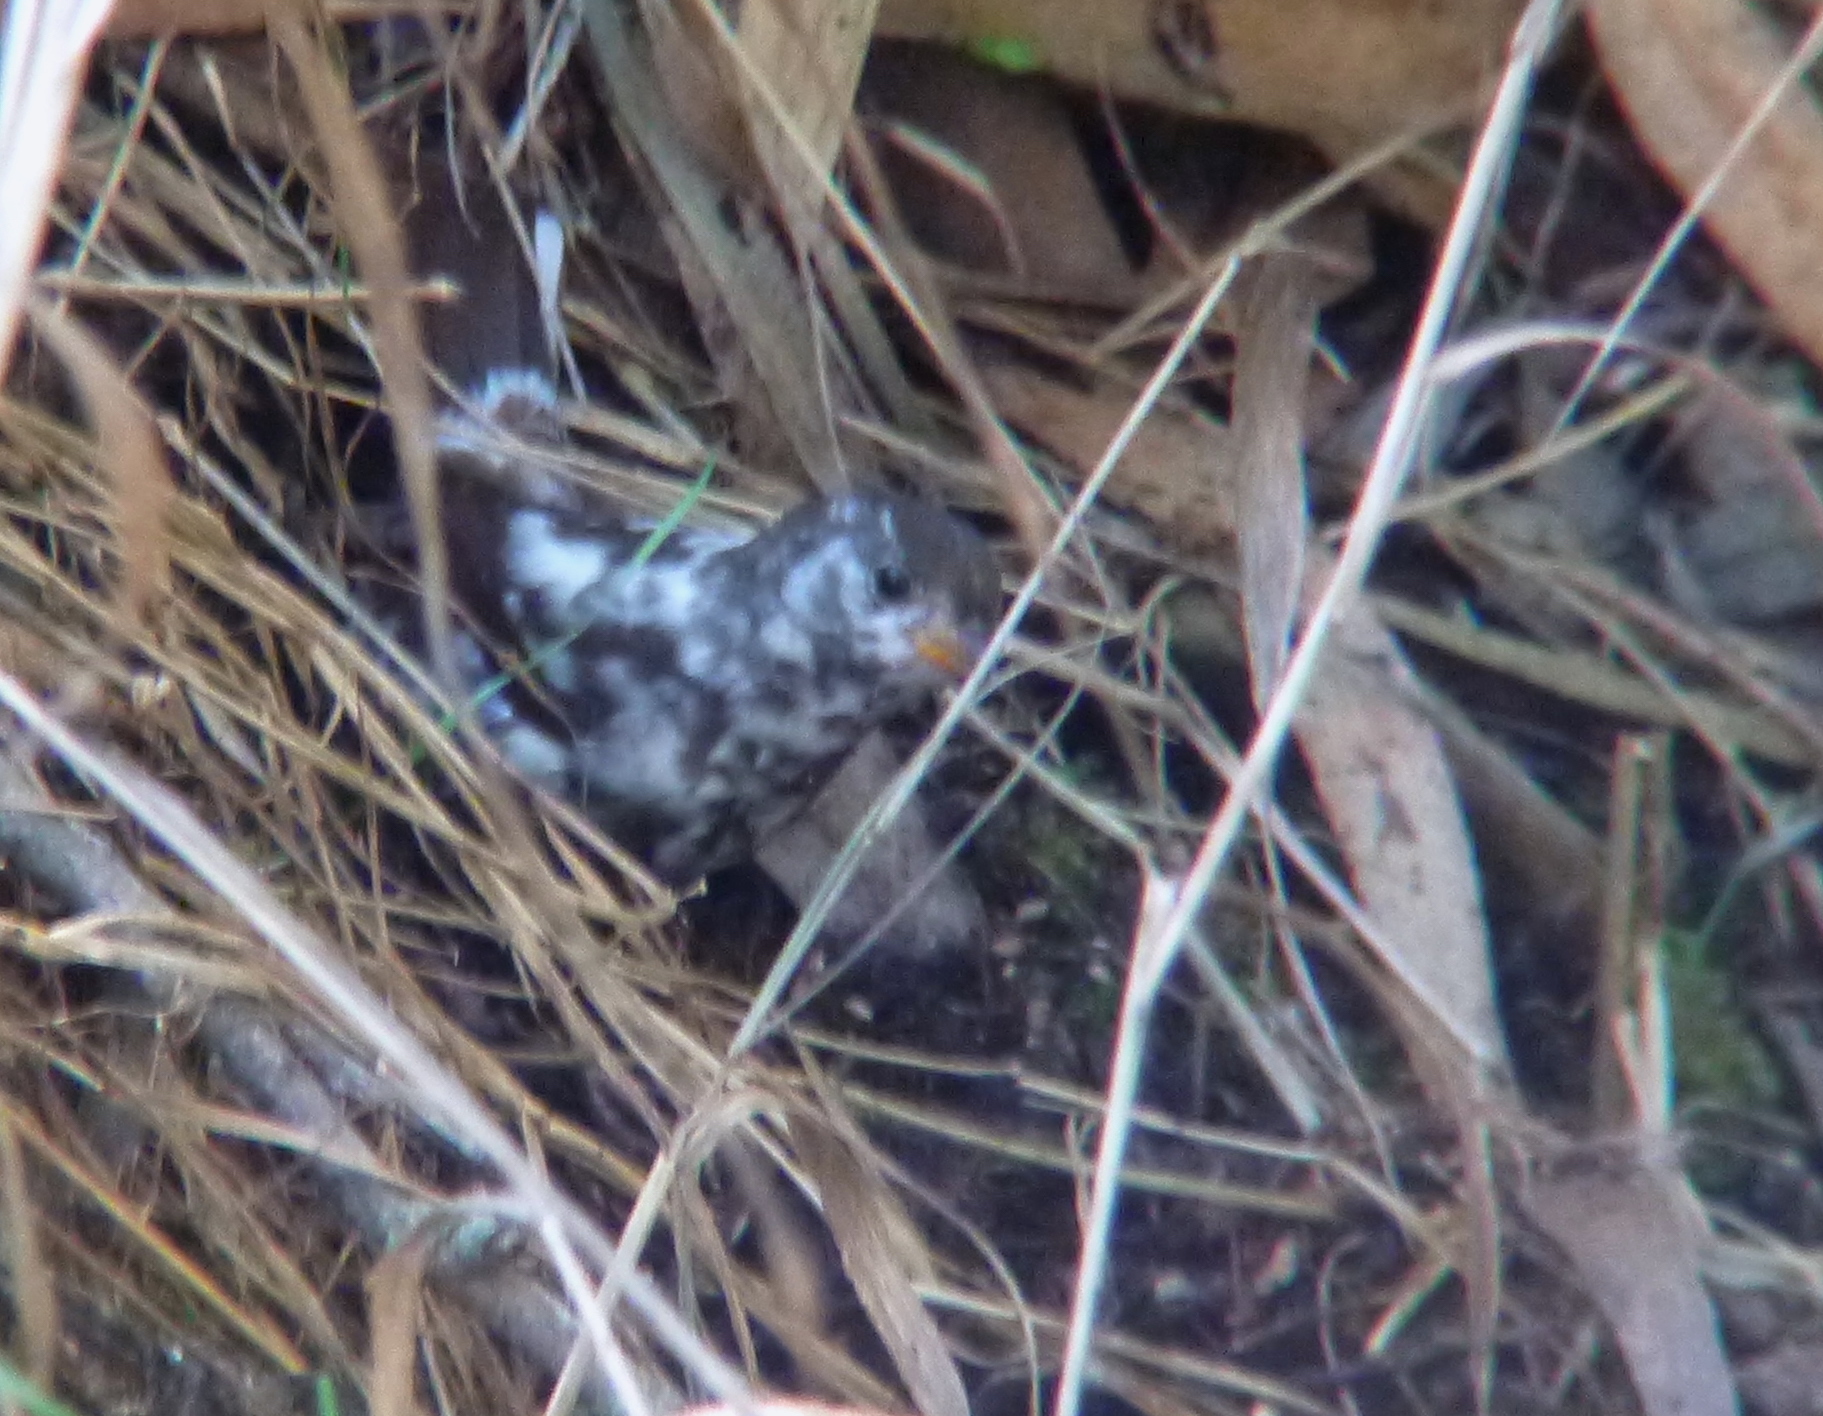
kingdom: Animalia
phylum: Chordata
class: Aves
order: Passeriformes
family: Passerellidae
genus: Passerella
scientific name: Passerella iliaca
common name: Fox sparrow
